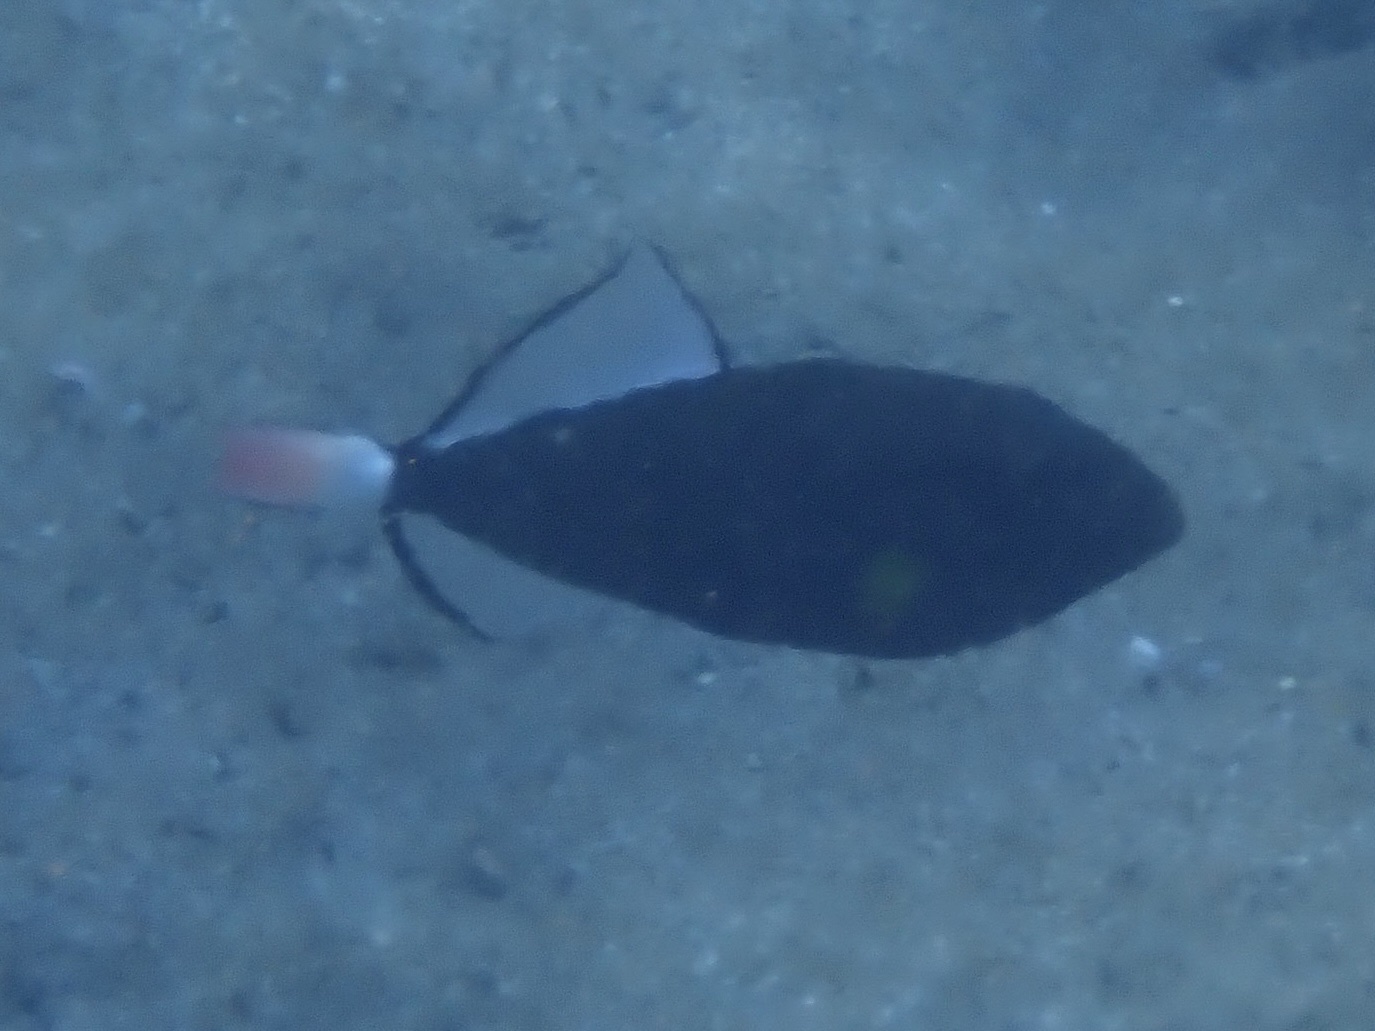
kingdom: Animalia
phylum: Chordata
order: Tetraodontiformes
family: Balistidae
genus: Melichthys
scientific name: Melichthys vidua
